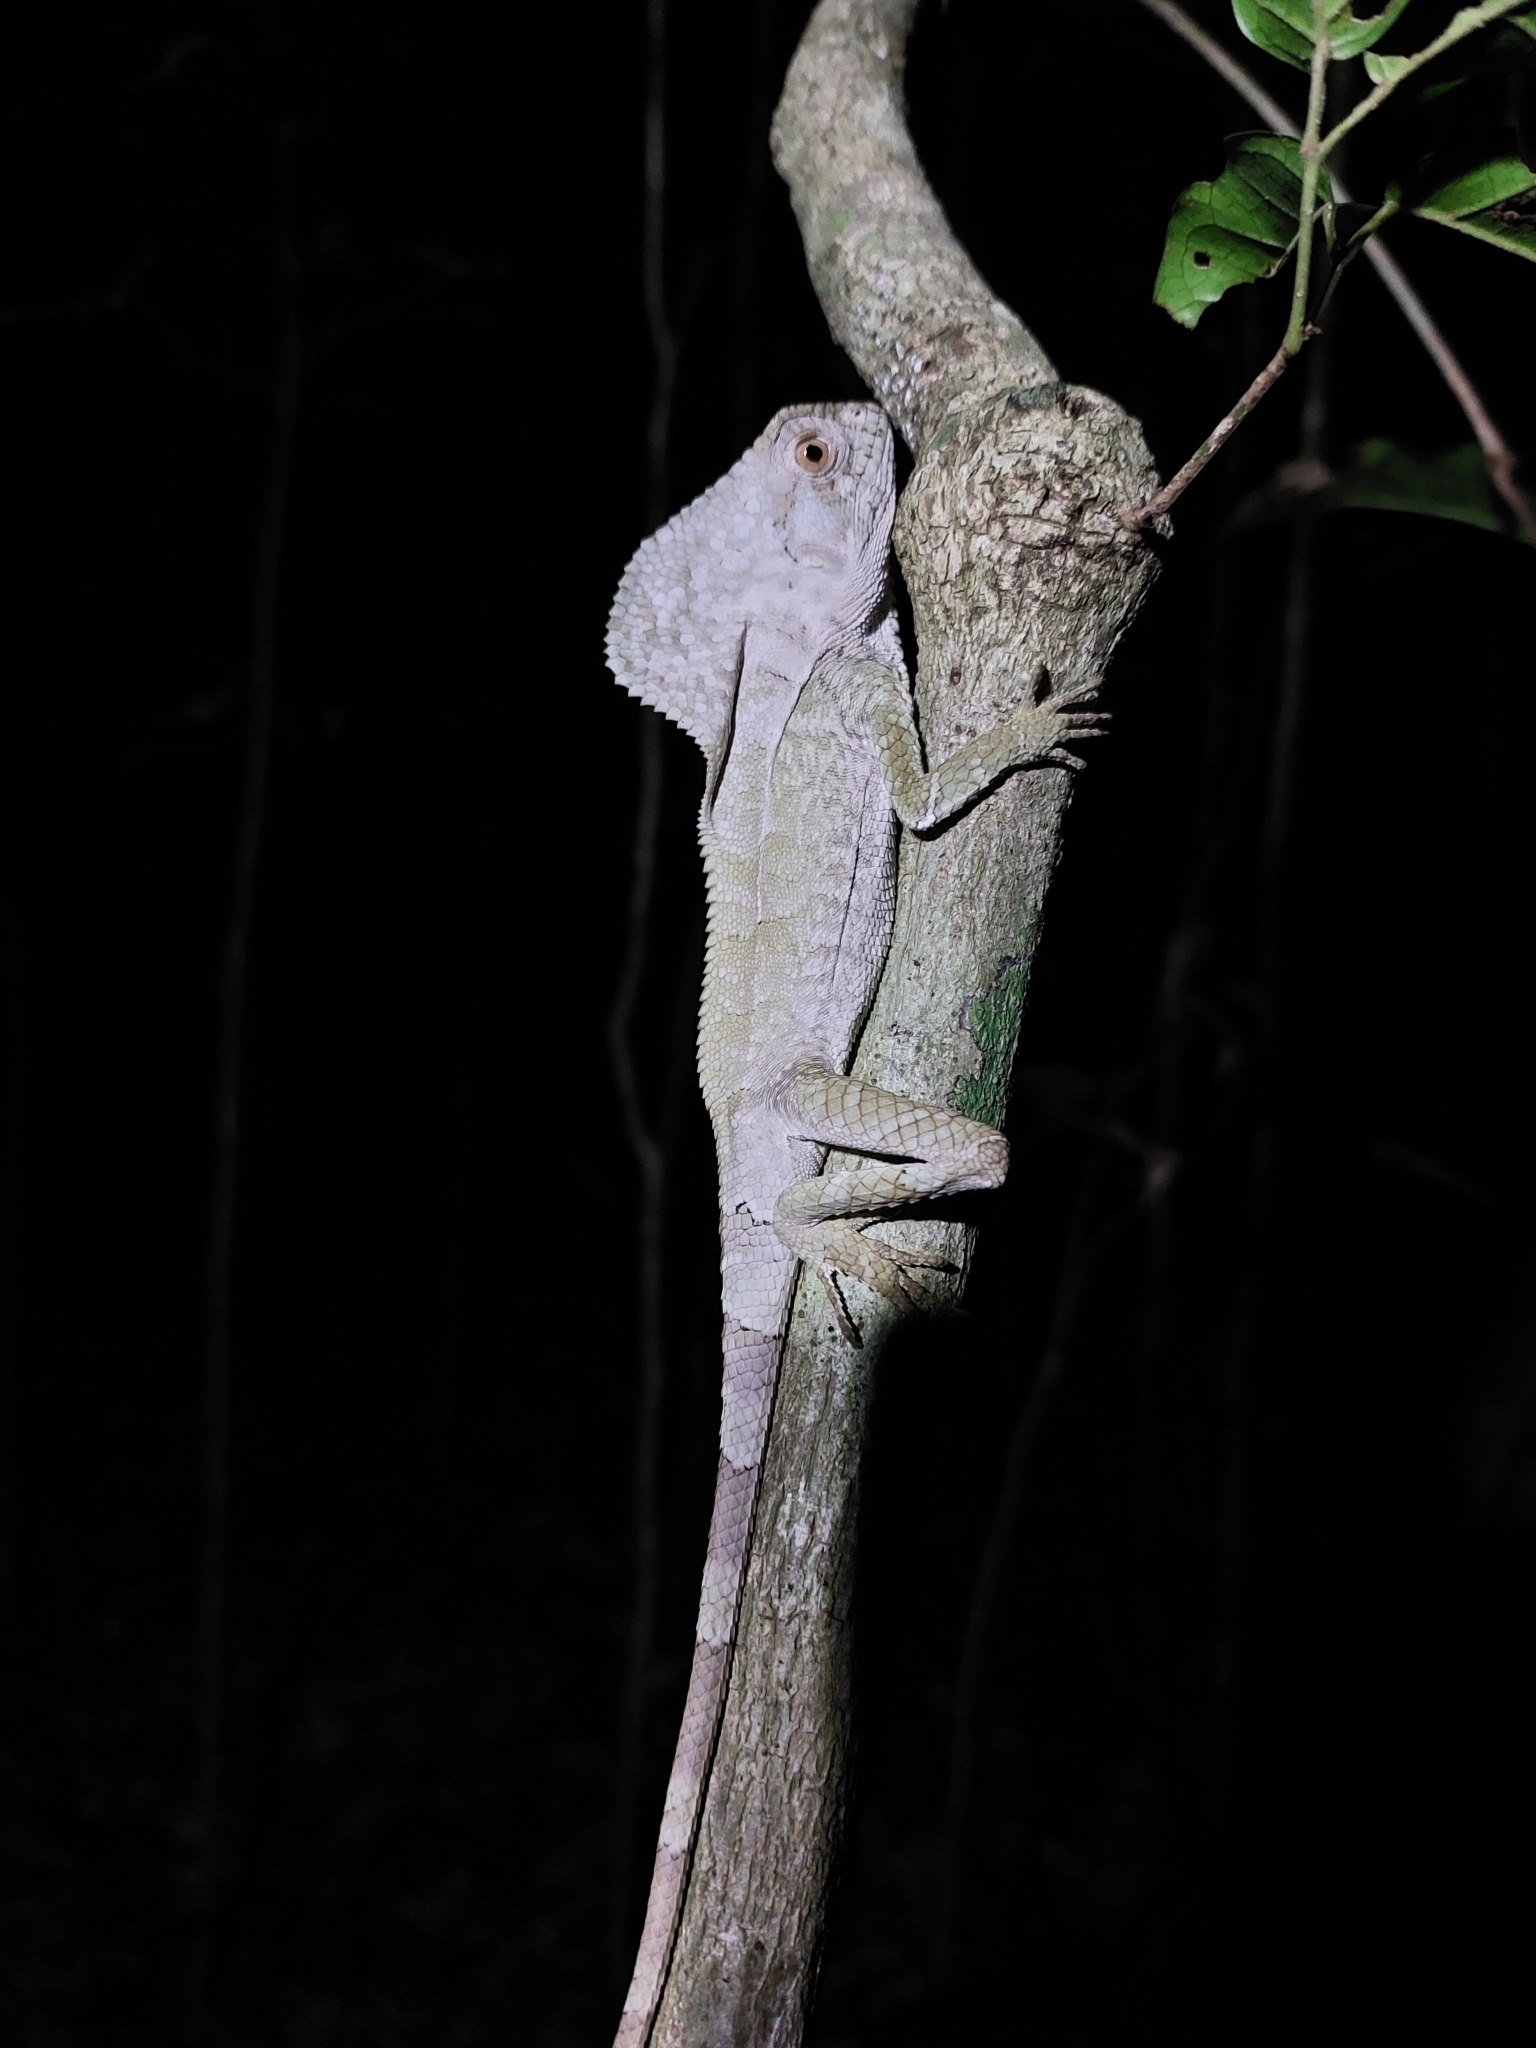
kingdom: Animalia
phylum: Chordata
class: Squamata
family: Corytophanidae
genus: Corytophanes
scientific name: Corytophanes cristatus
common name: Smooth helmeted iguana
